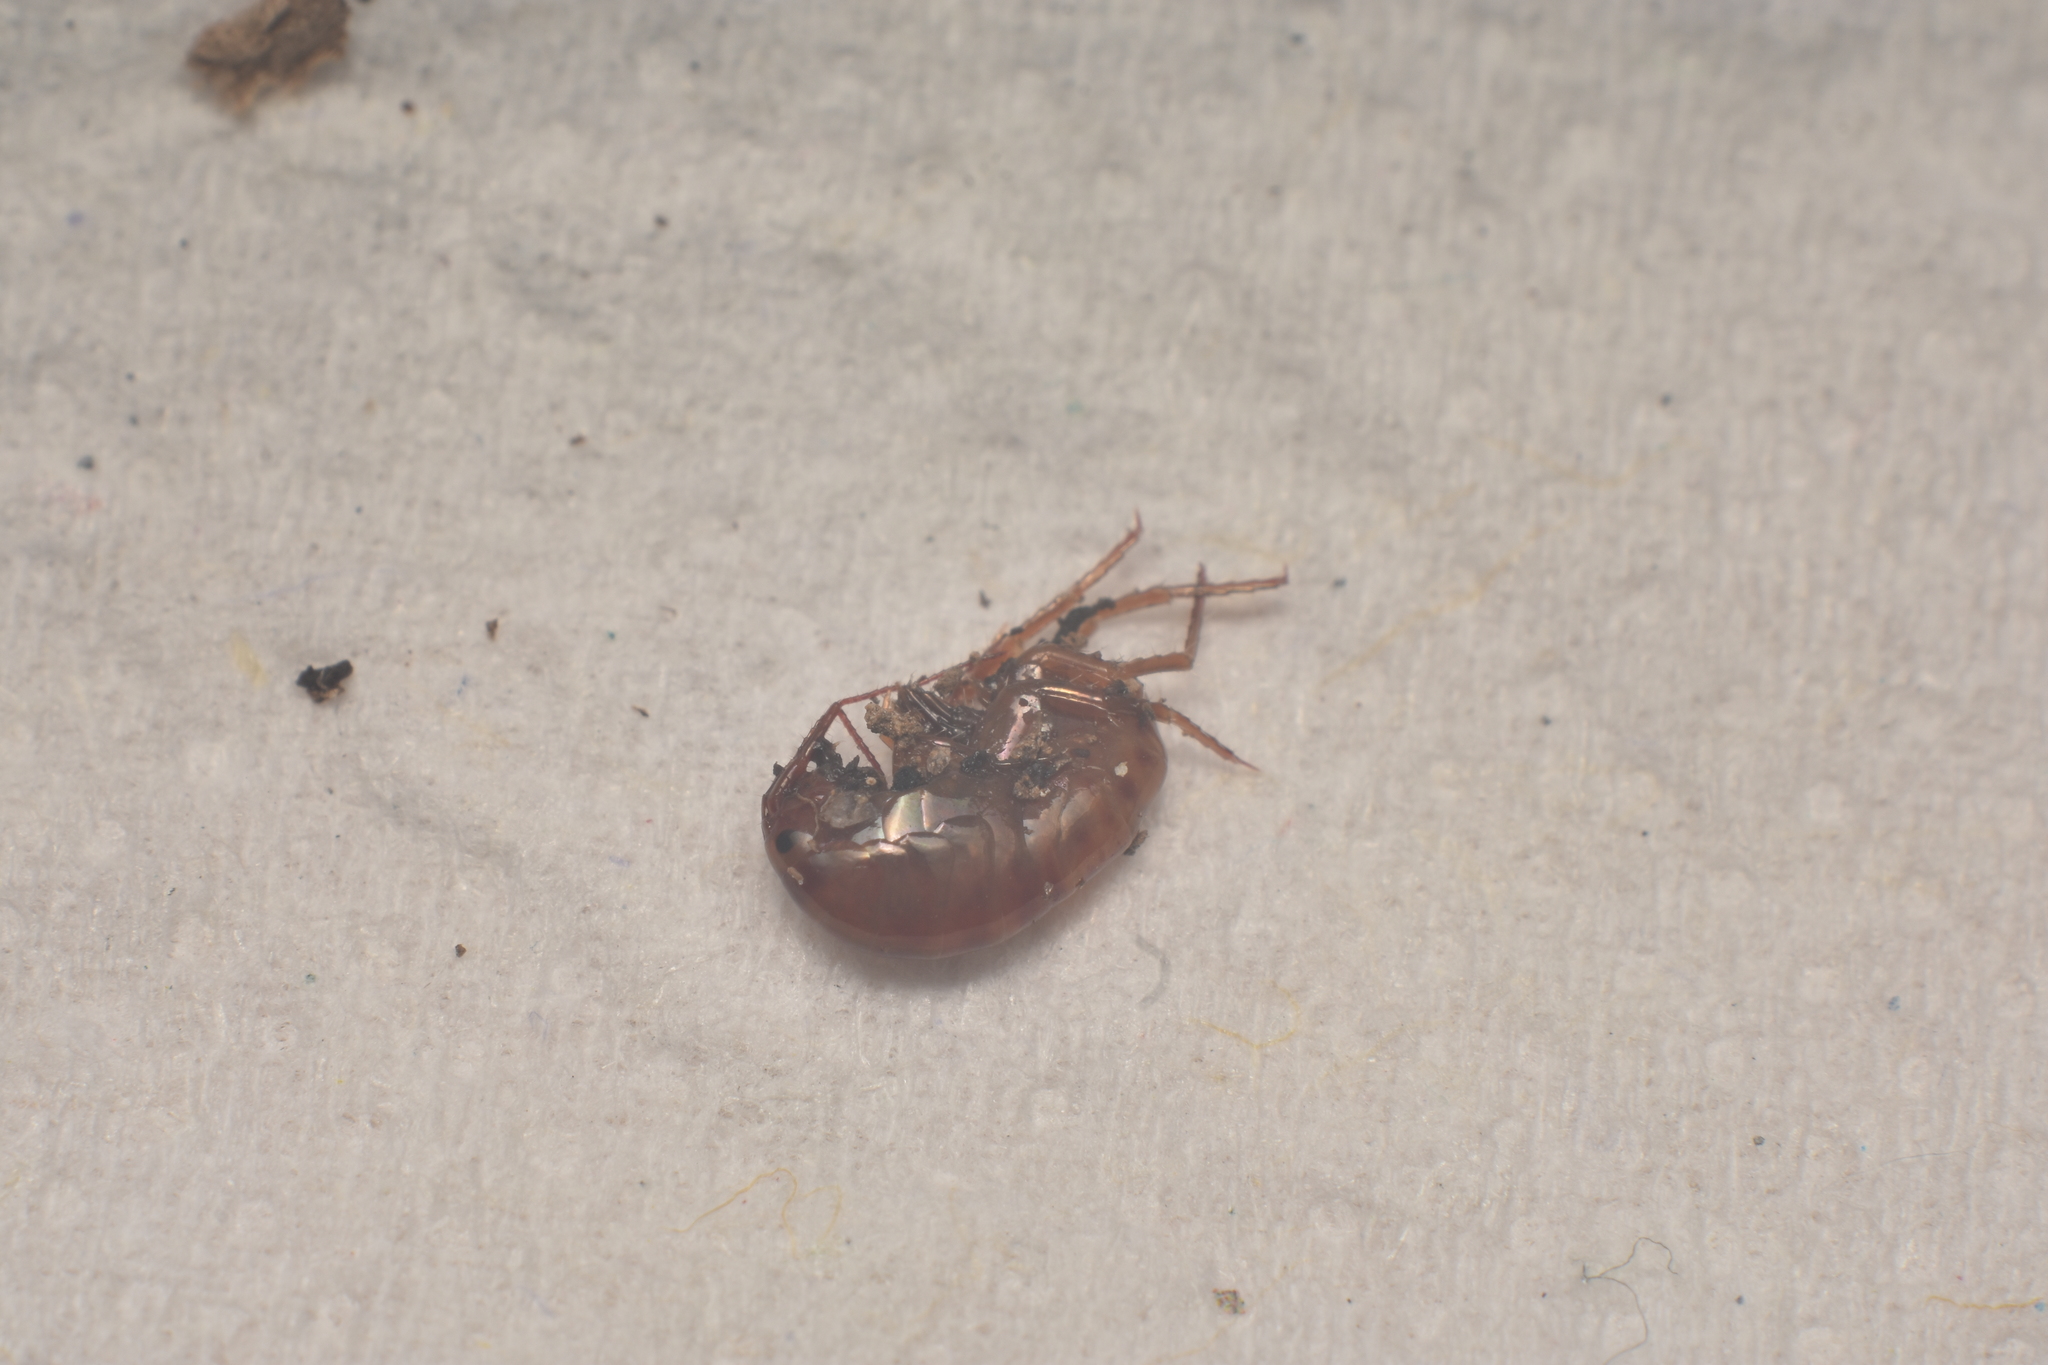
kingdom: Animalia
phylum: Arthropoda
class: Malacostraca
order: Amphipoda
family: Arcitalitridae
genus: Arcitalitrus
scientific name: Arcitalitrus sylvaticus
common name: Gammarid amphipod
